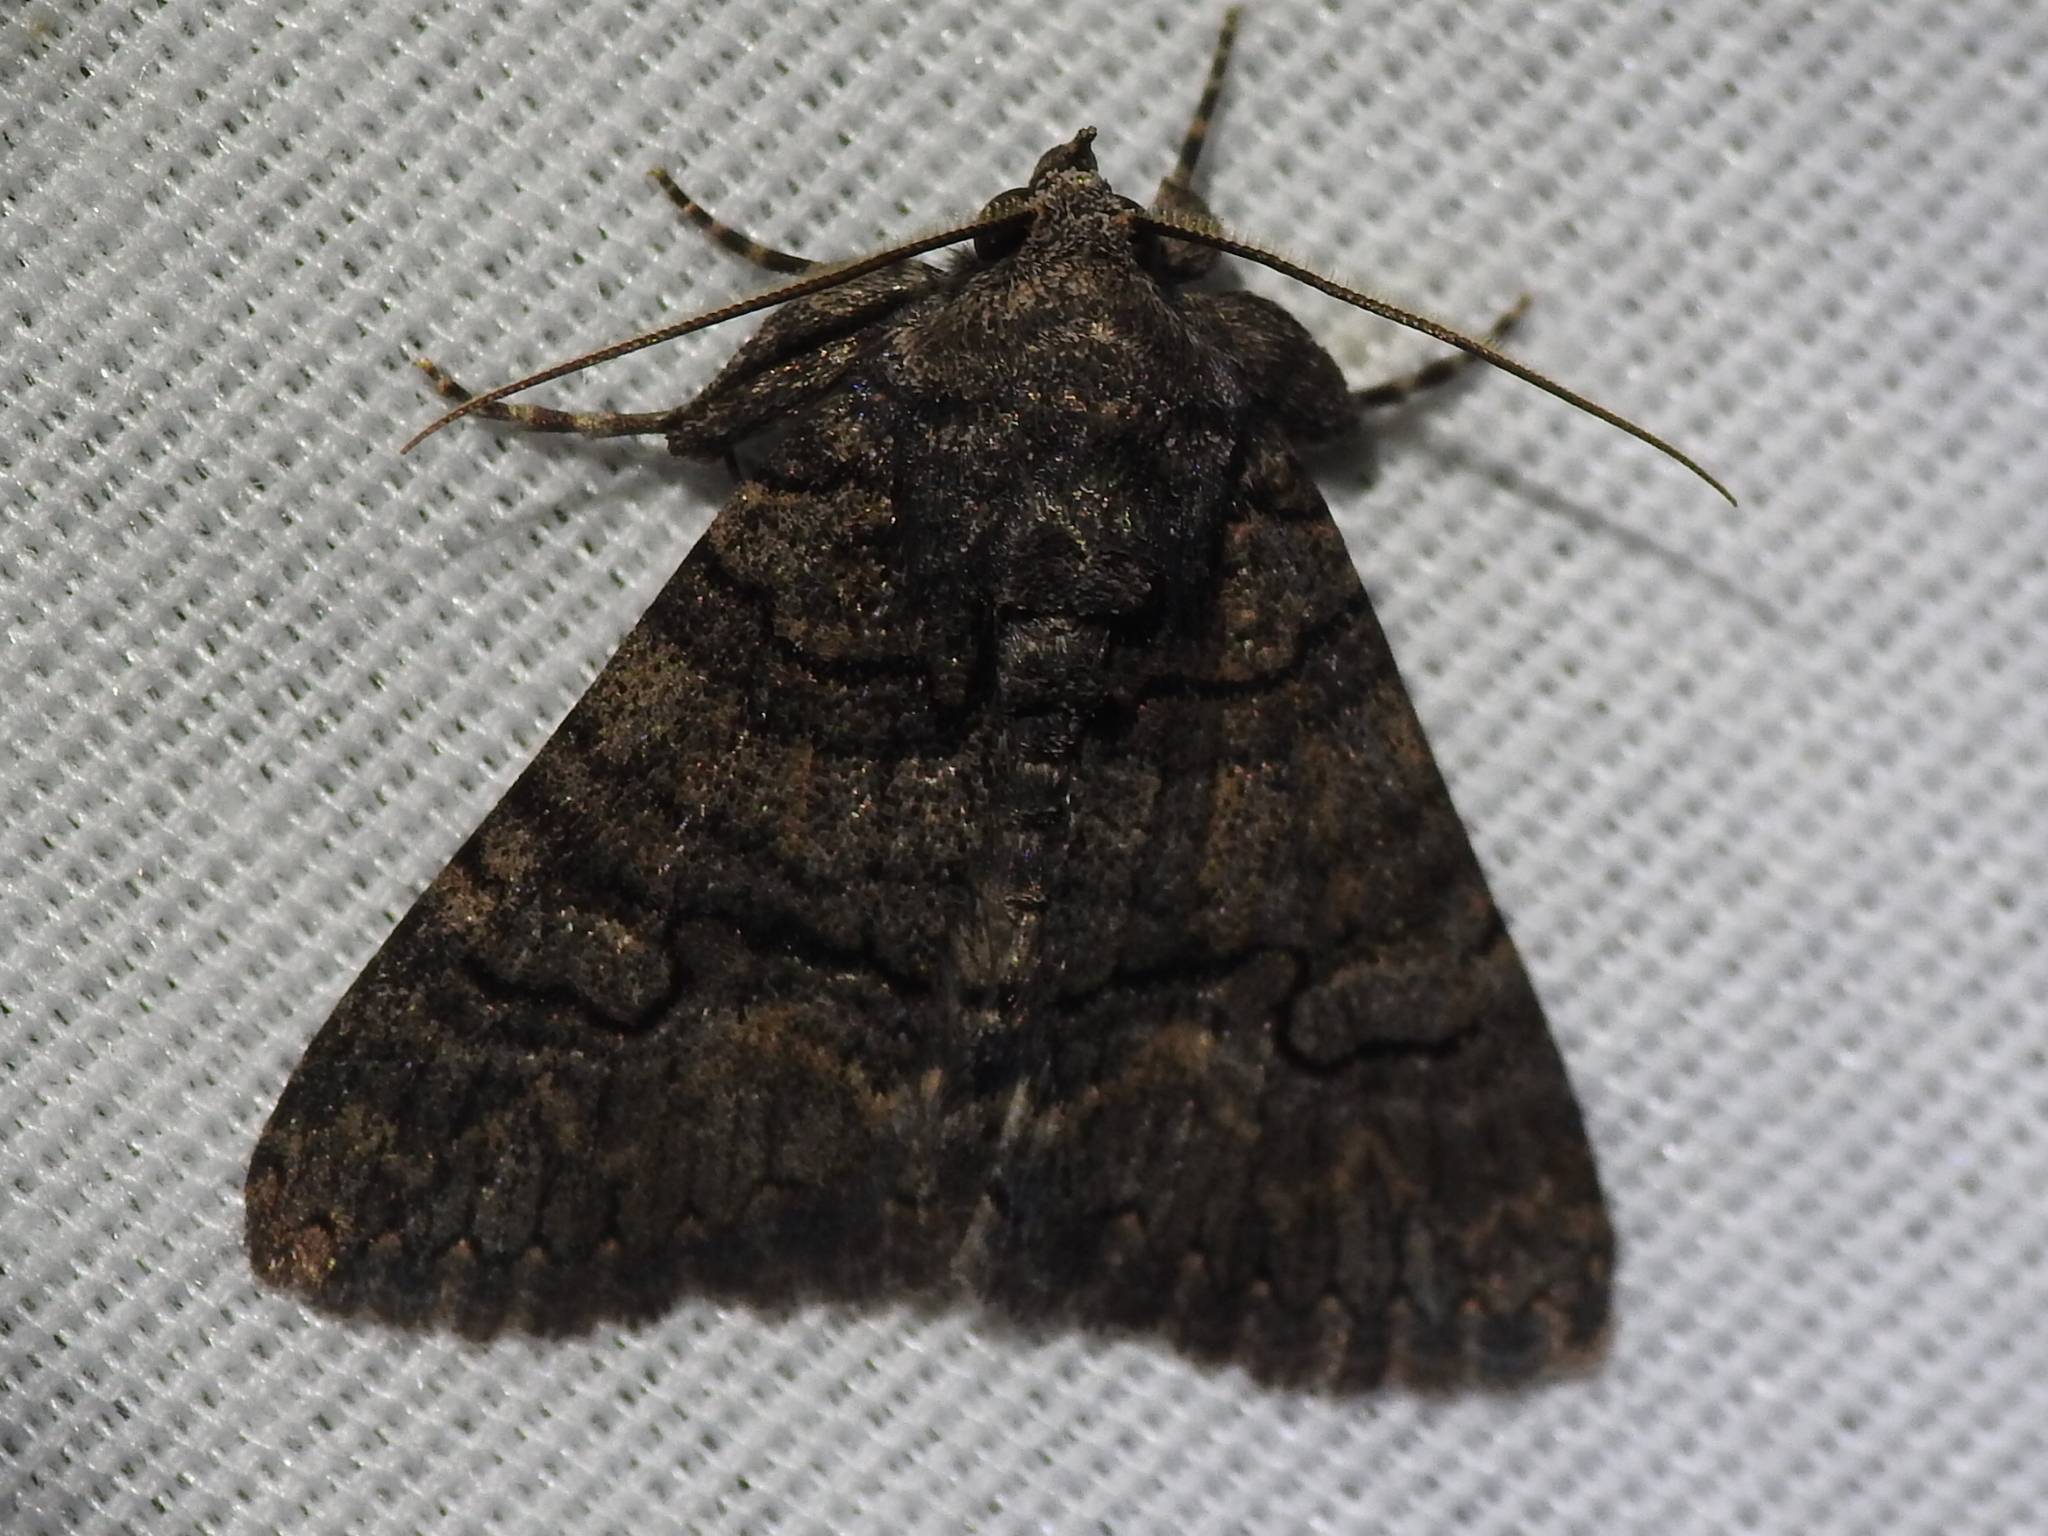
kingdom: Animalia
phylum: Arthropoda
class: Insecta
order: Lepidoptera
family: Erebidae
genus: Elousa
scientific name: Elousa mima
